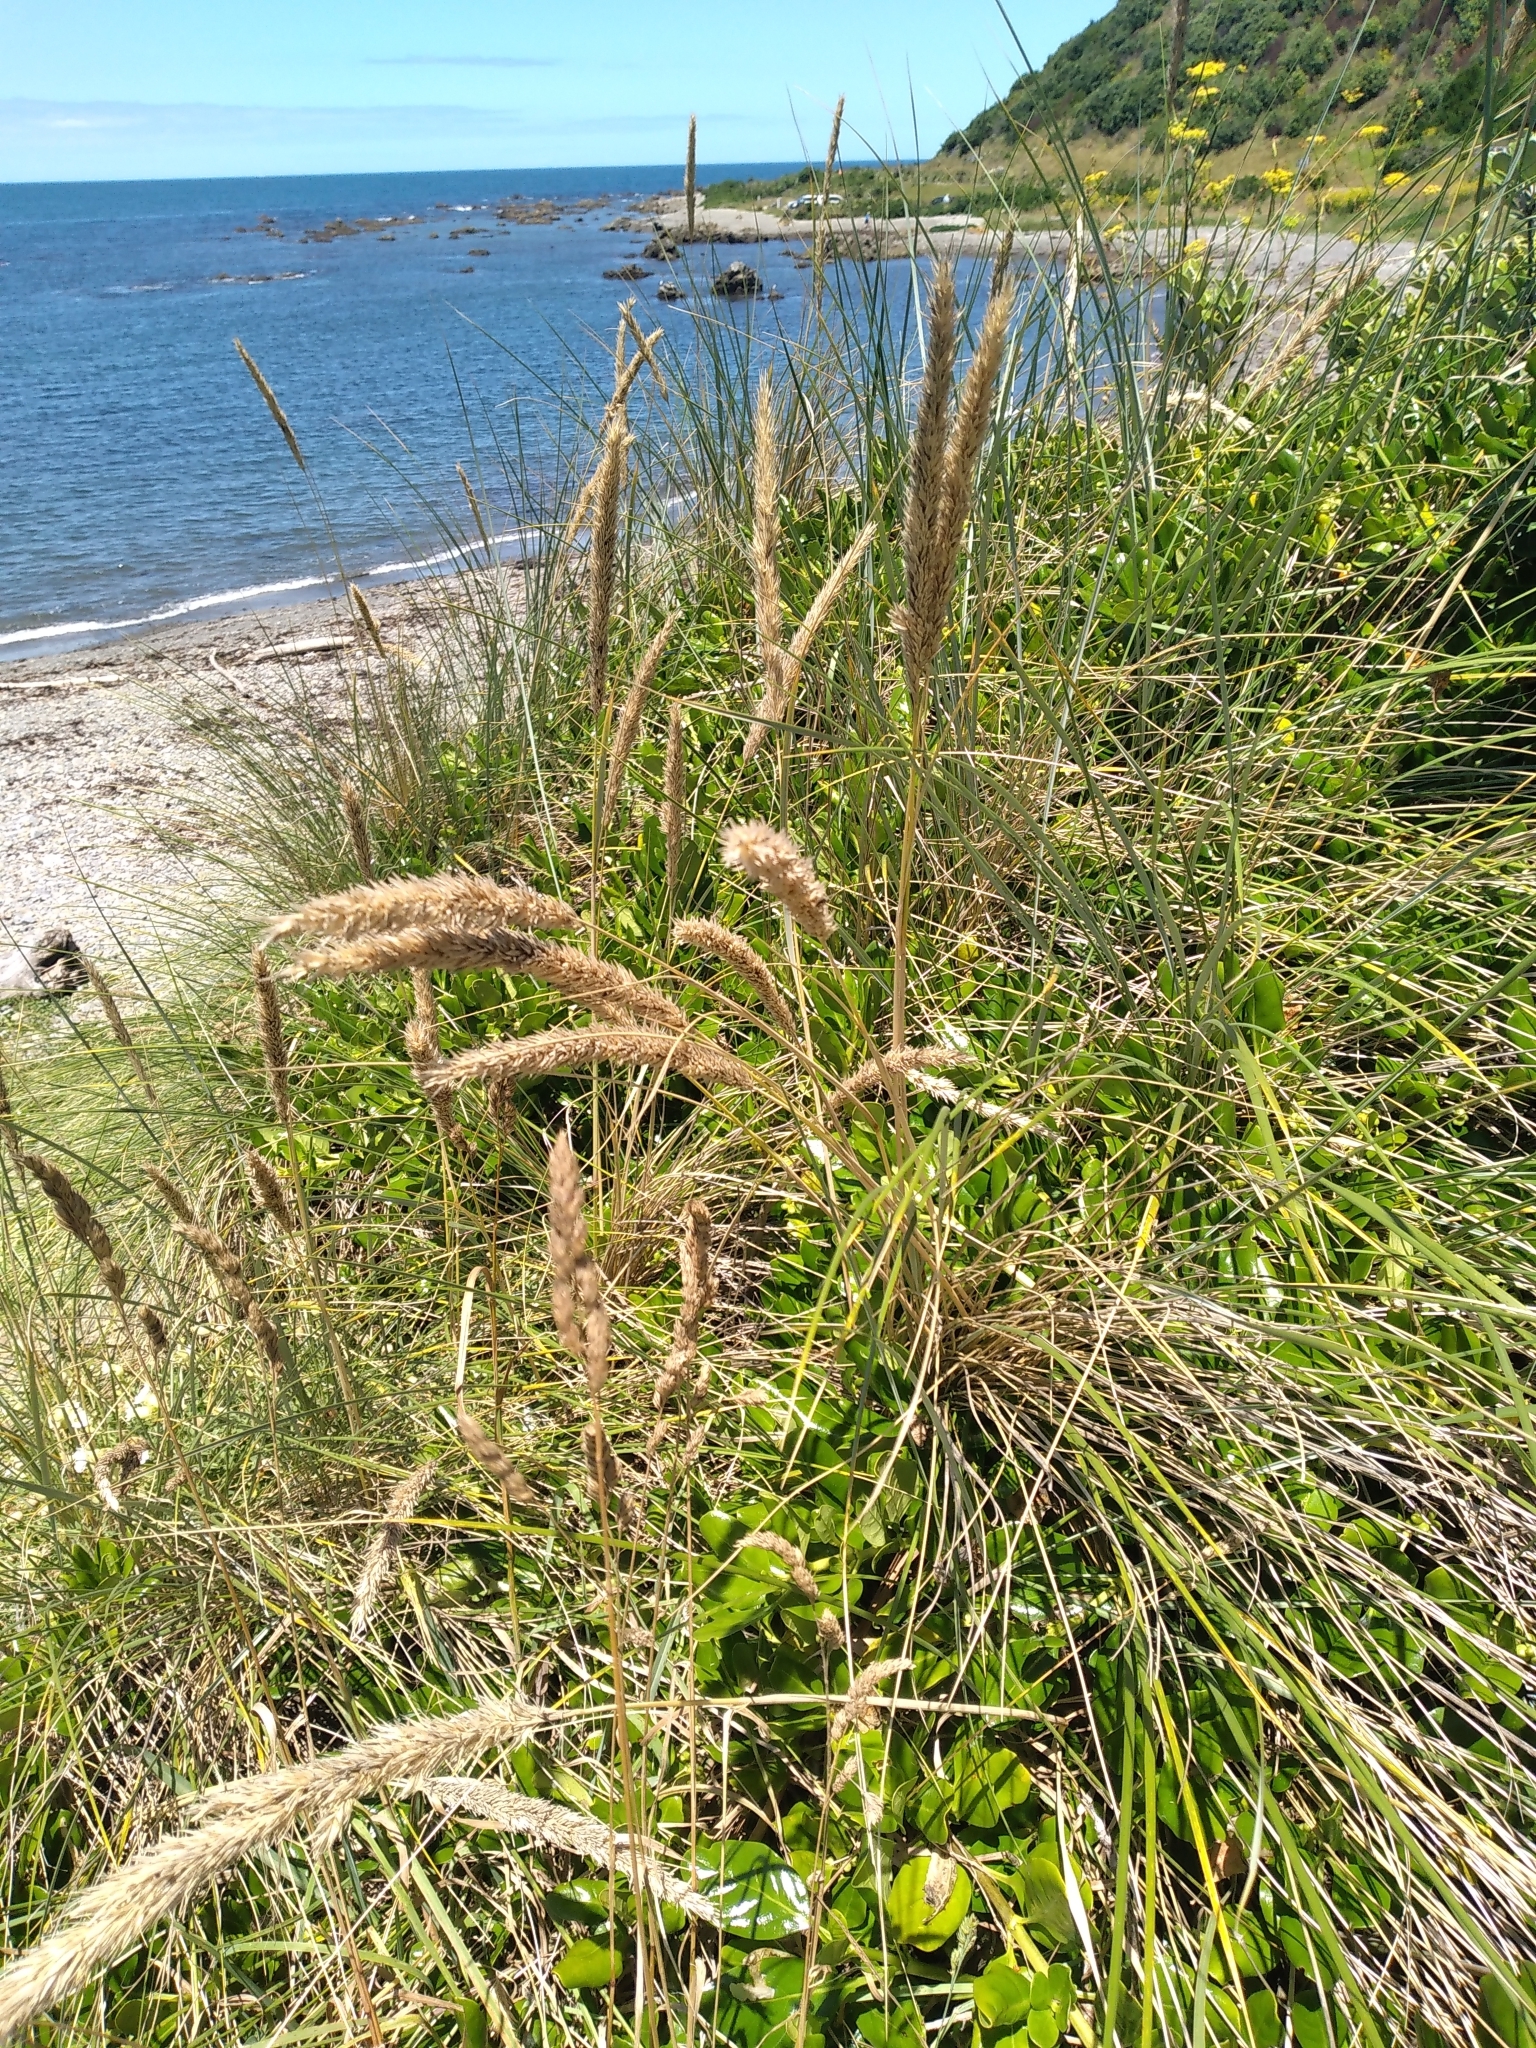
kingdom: Plantae
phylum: Tracheophyta
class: Liliopsida
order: Poales
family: Poaceae
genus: Calamagrostis
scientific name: Calamagrostis arenaria
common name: European beachgrass
